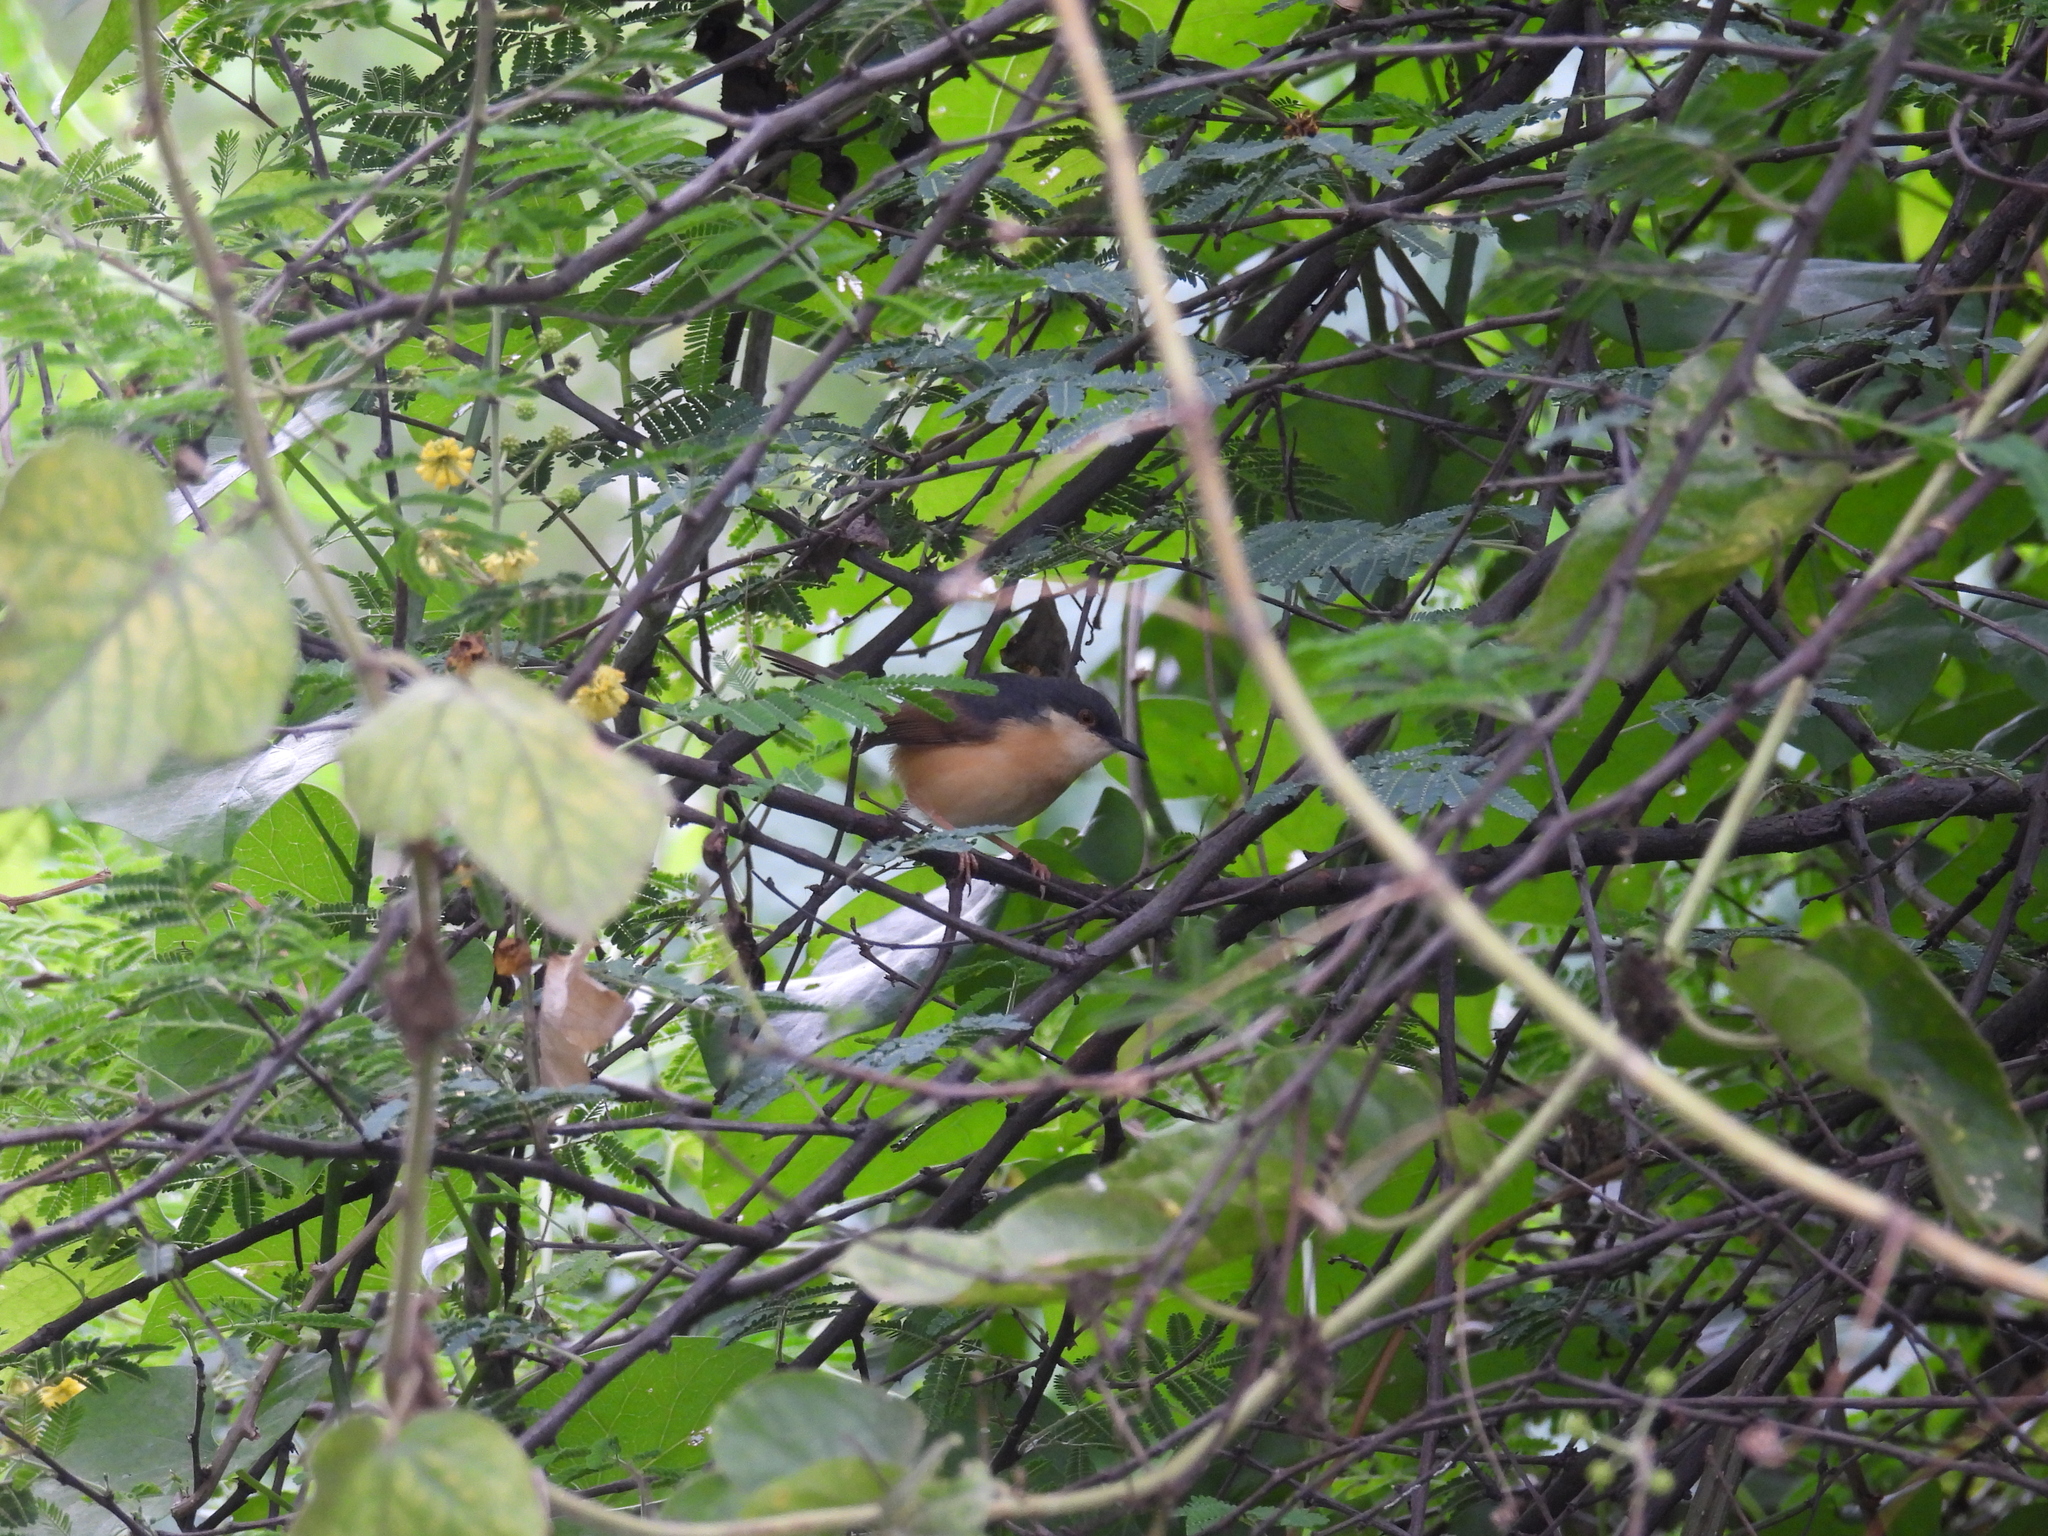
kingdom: Animalia
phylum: Chordata
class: Aves
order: Passeriformes
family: Cisticolidae
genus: Prinia
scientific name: Prinia socialis
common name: Ashy prinia
